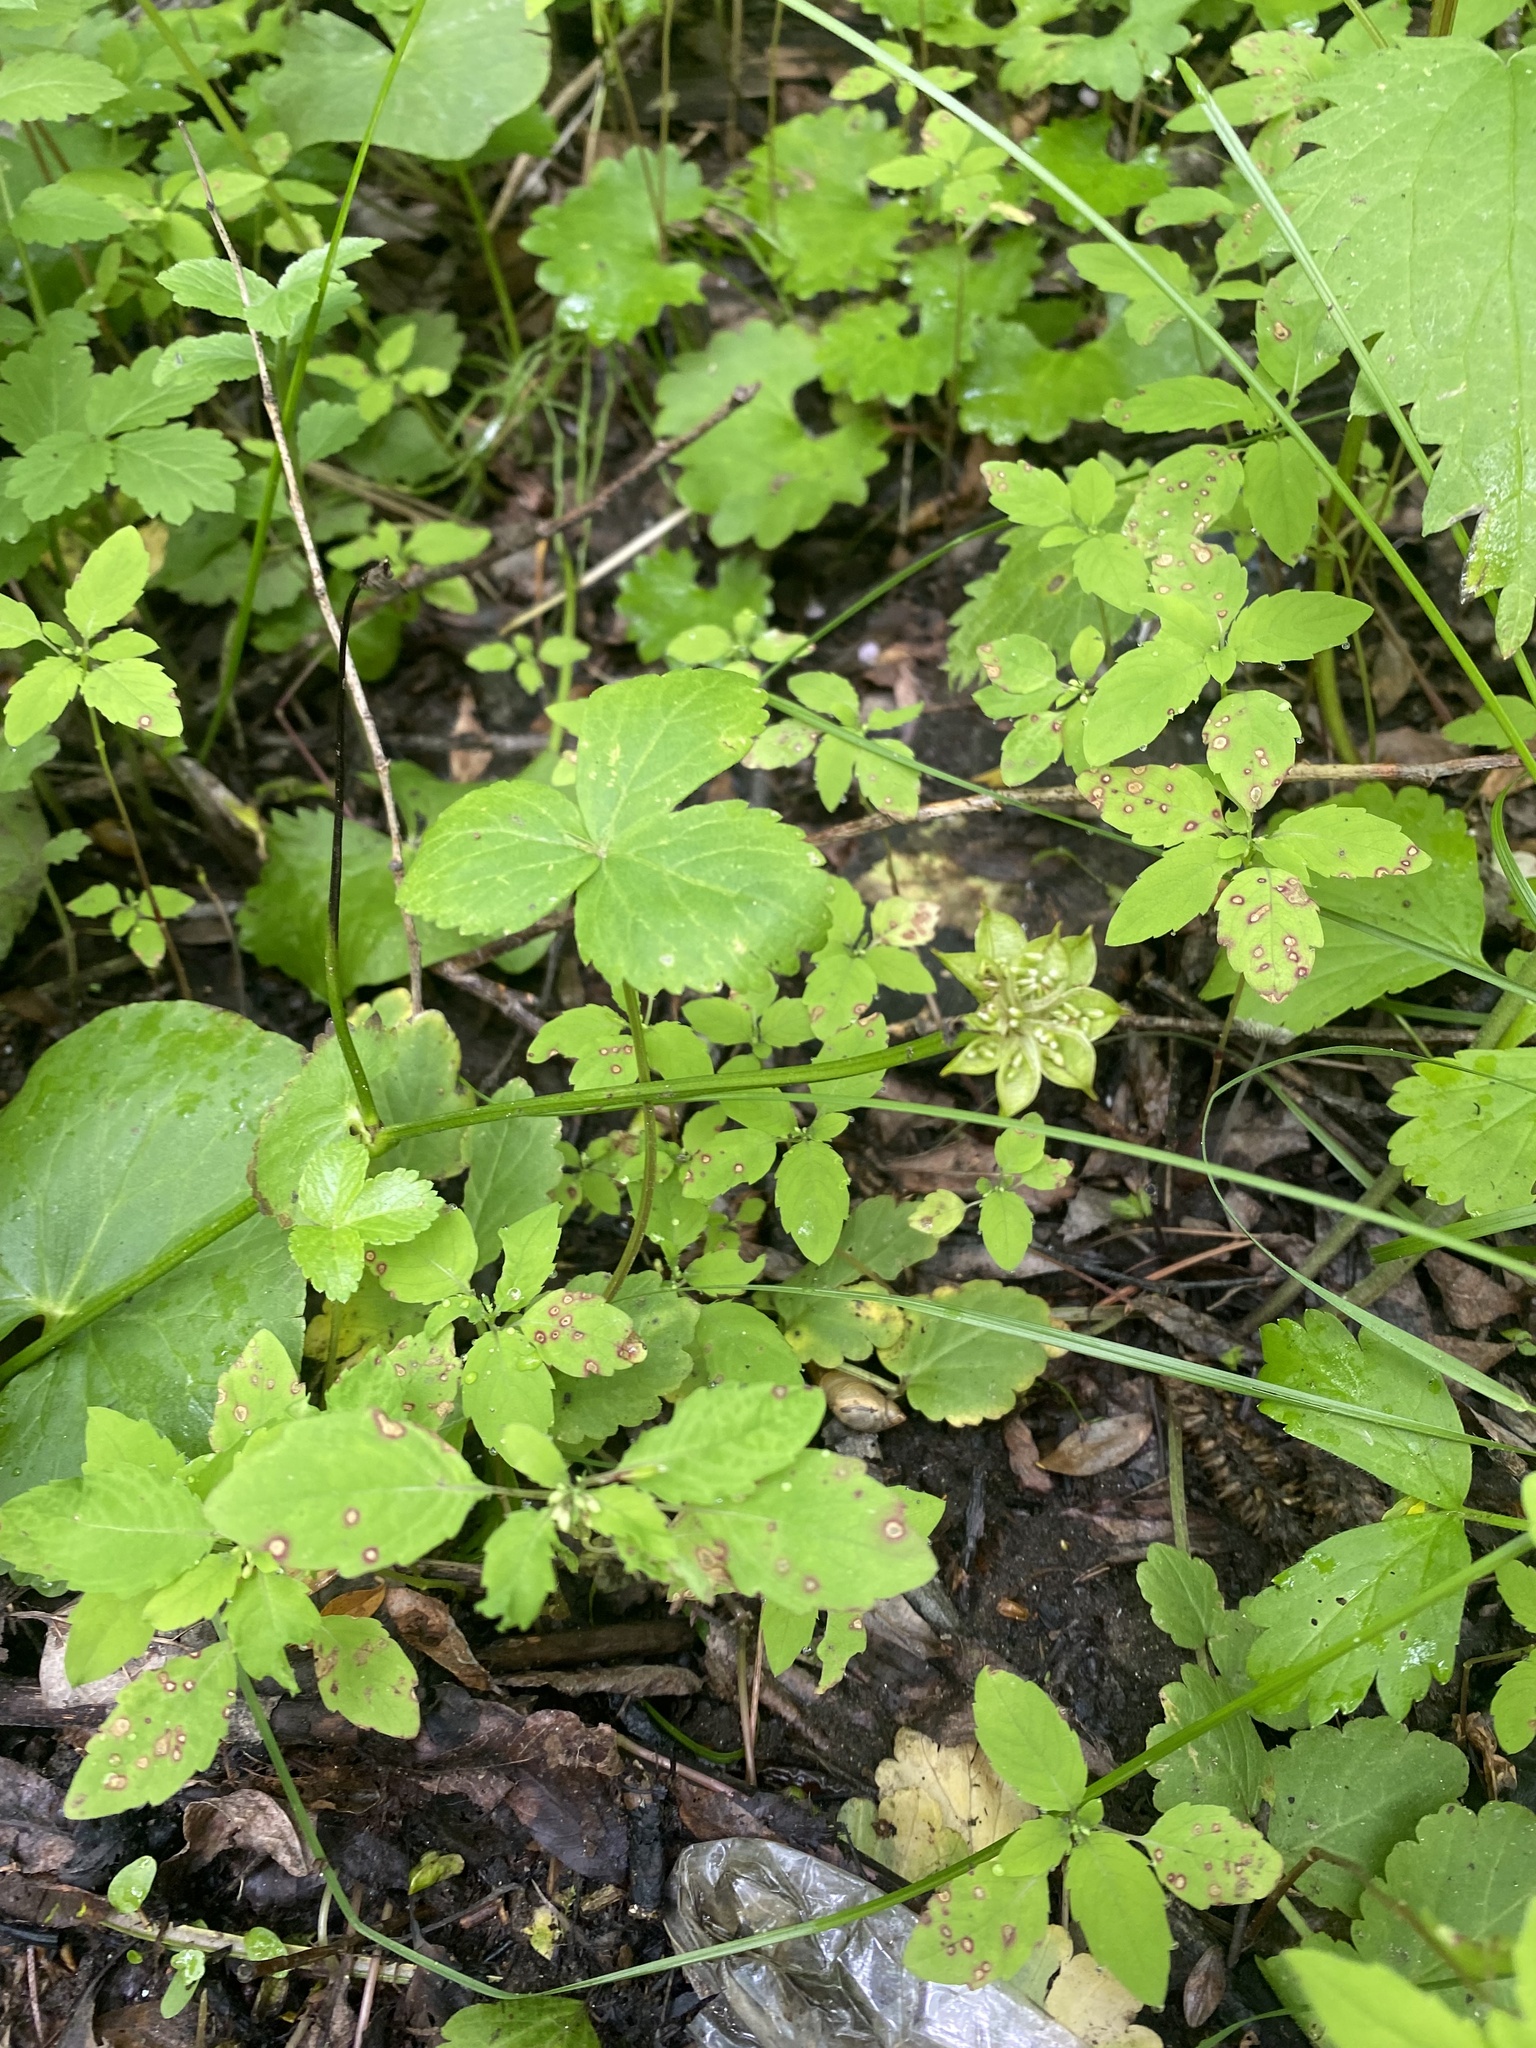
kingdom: Plantae
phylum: Tracheophyta
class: Magnoliopsida
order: Ranunculales
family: Ranunculaceae
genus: Caltha
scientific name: Caltha palustris
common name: Marsh marigold
